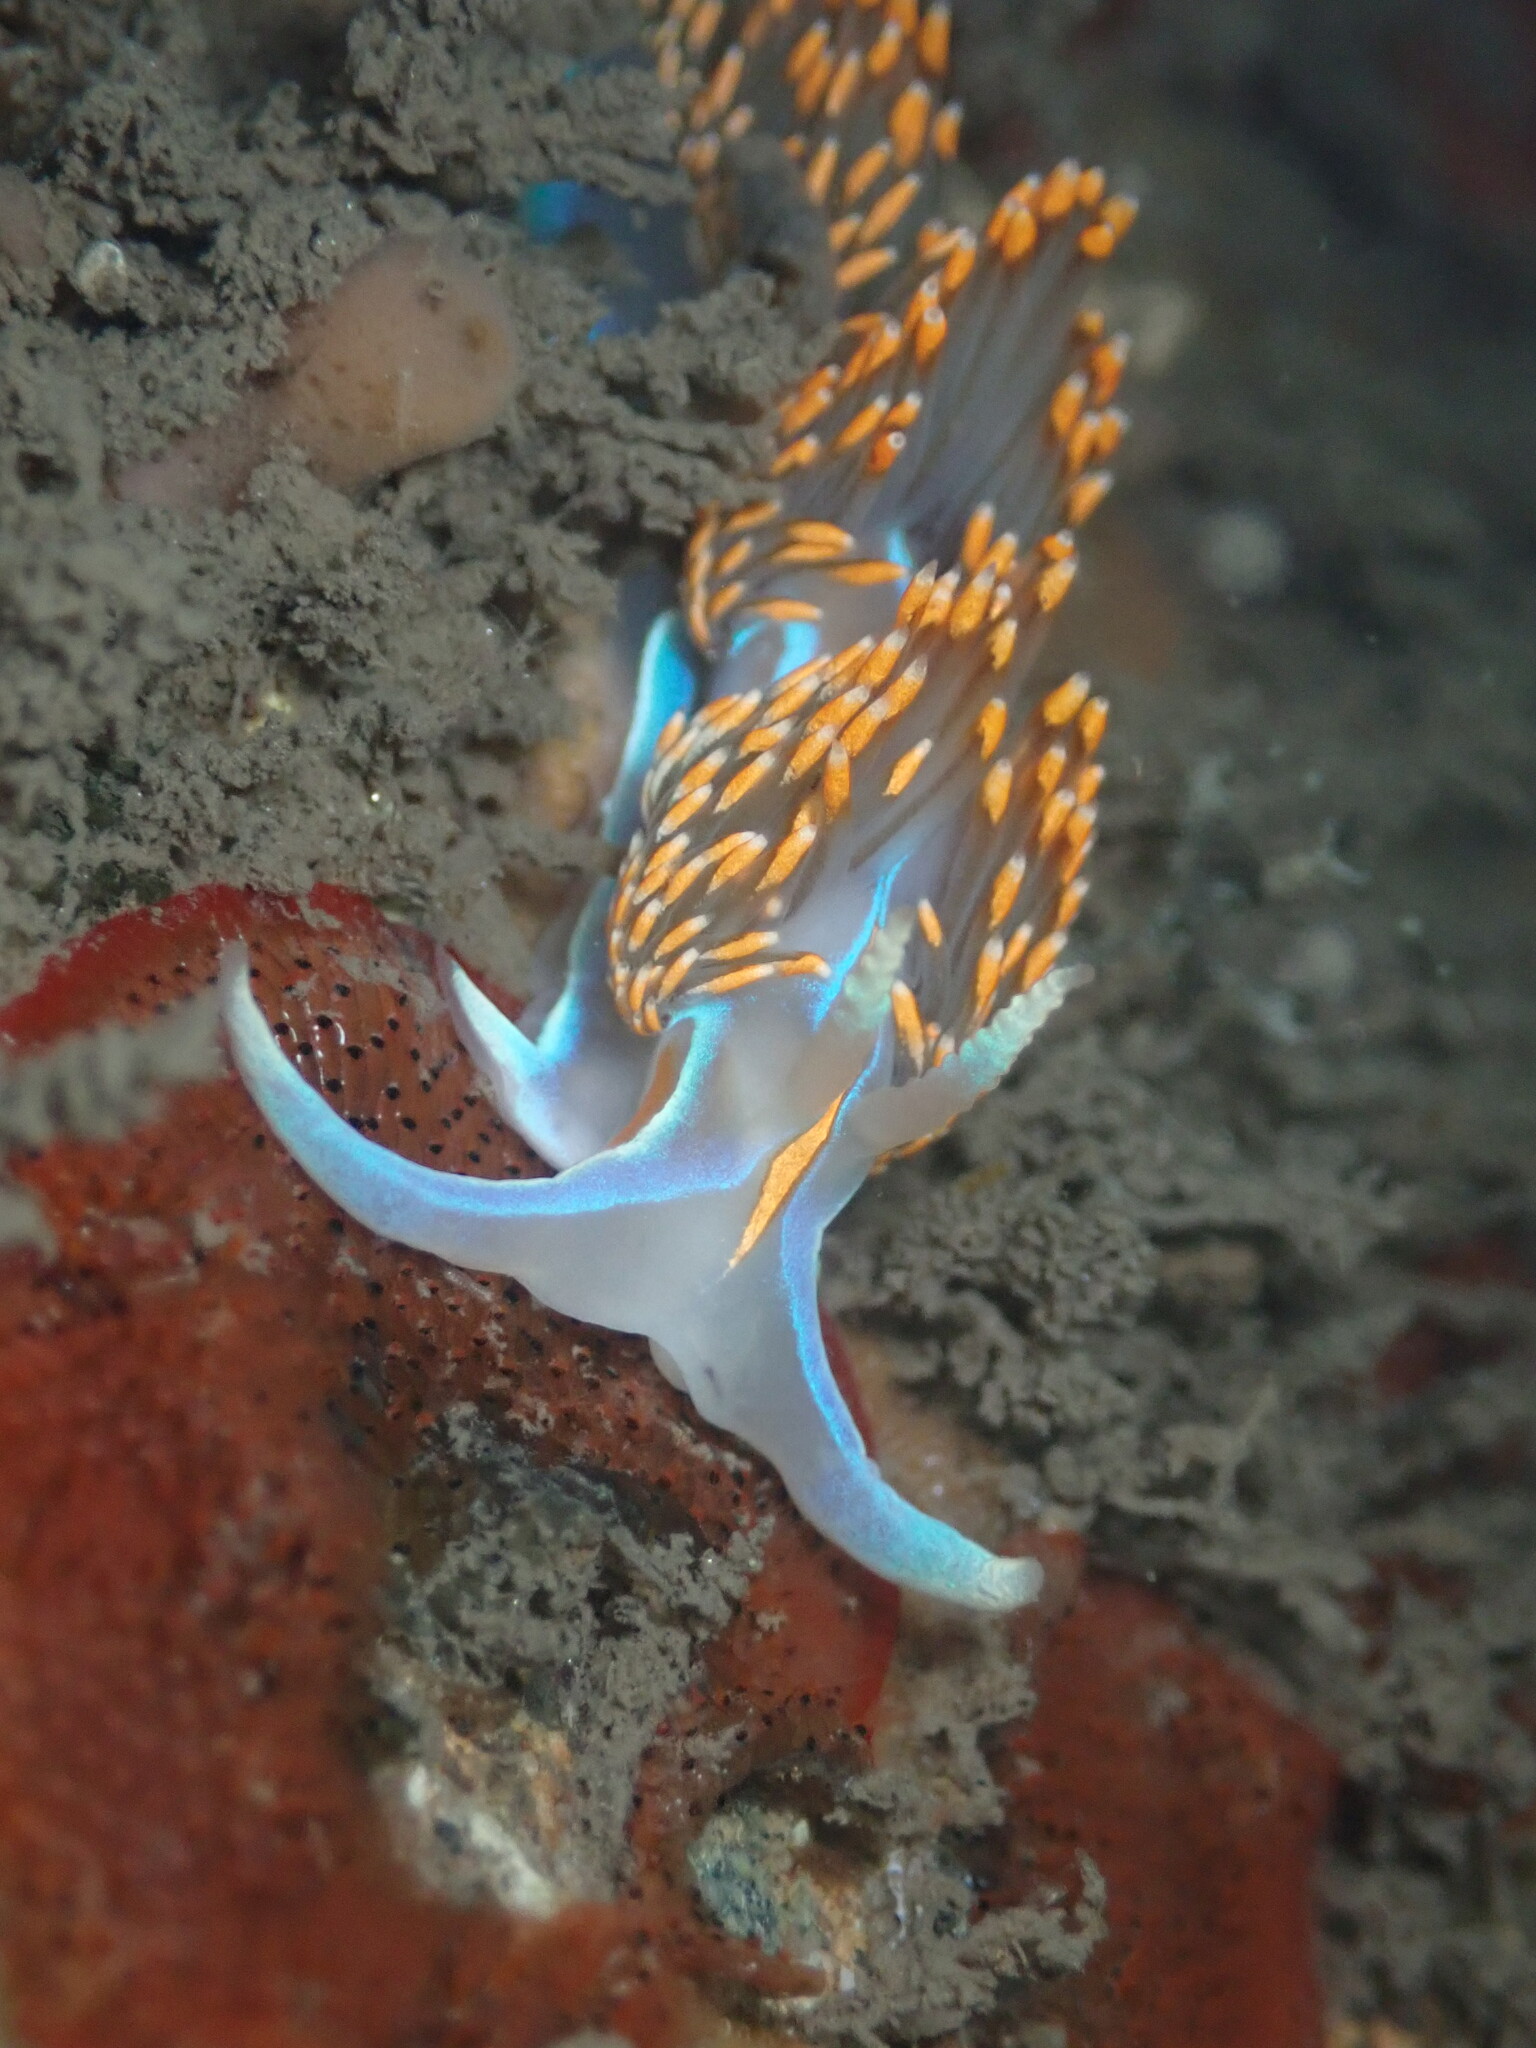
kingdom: Animalia
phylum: Mollusca
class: Gastropoda
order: Nudibranchia
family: Myrrhinidae
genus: Hermissenda
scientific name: Hermissenda opalescens
